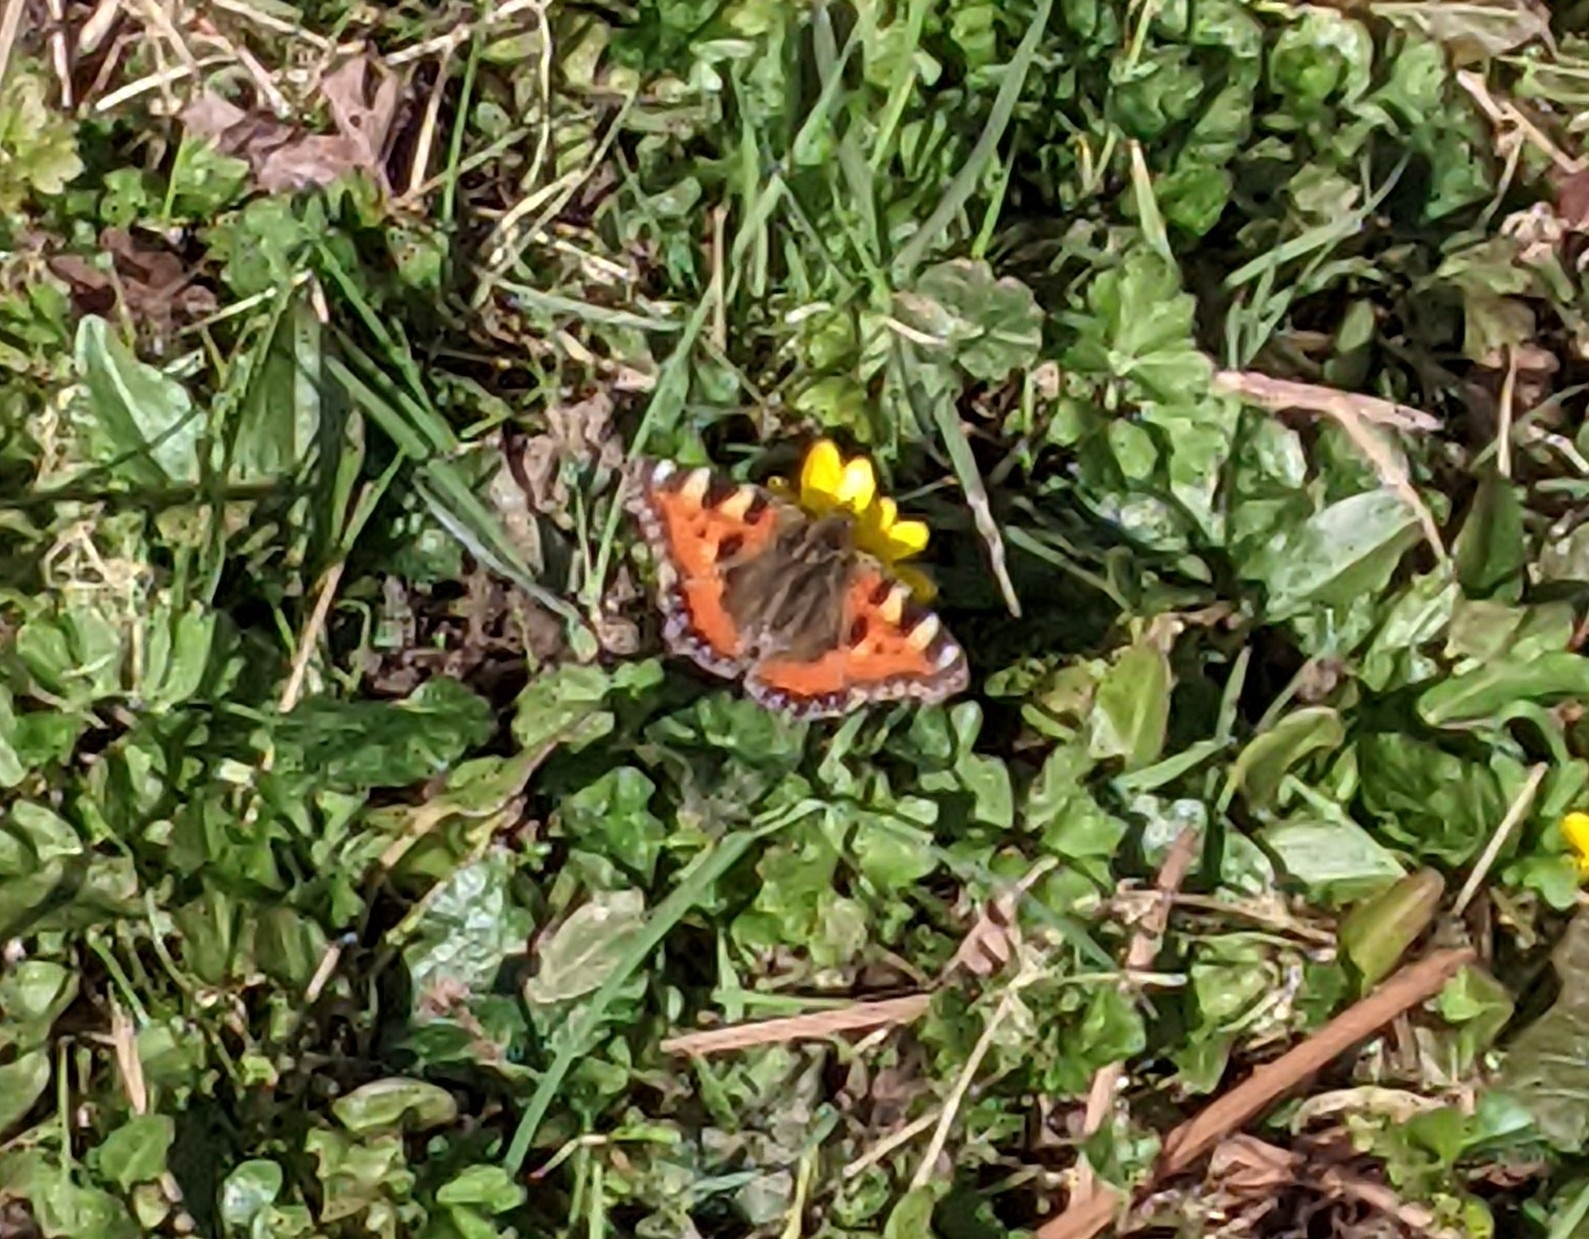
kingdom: Animalia
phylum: Arthropoda
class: Insecta
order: Lepidoptera
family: Nymphalidae
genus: Aglais
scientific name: Aglais urticae
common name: Small tortoiseshell
